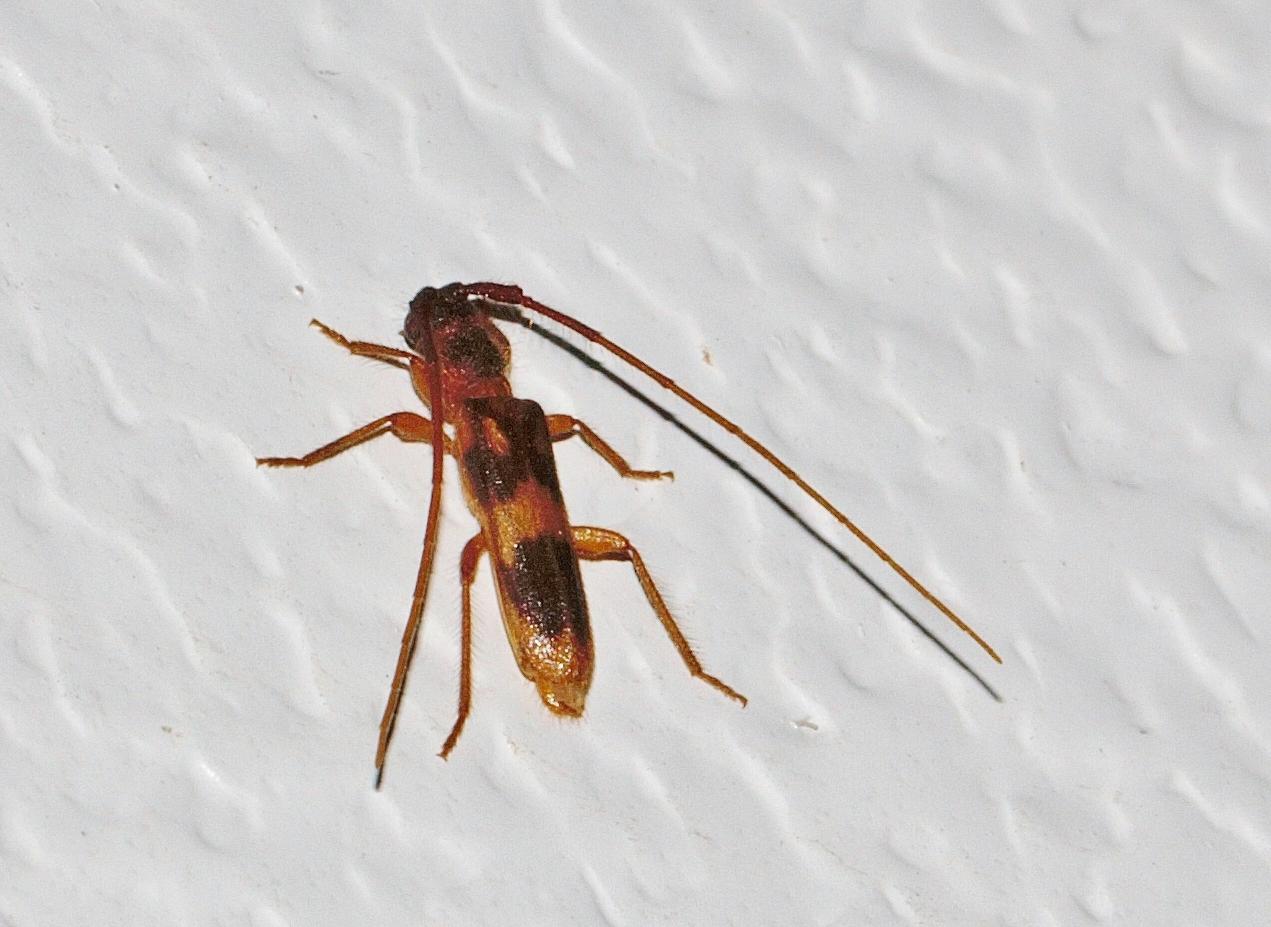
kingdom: Animalia
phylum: Arthropoda
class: Insecta
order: Coleoptera
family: Cerambycidae
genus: Catoeme
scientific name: Catoeme brincki
